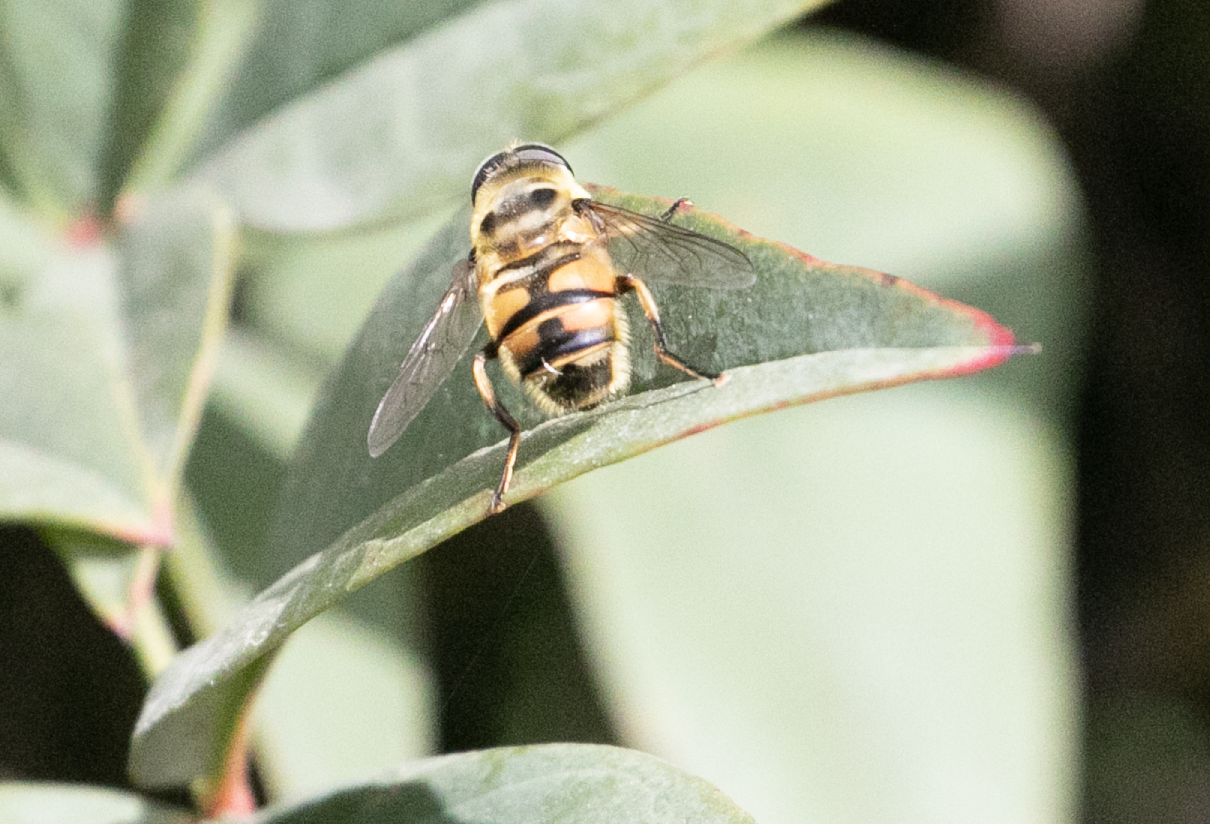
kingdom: Animalia
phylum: Arthropoda
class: Insecta
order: Diptera
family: Syrphidae
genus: Myathropa
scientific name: Myathropa florea
